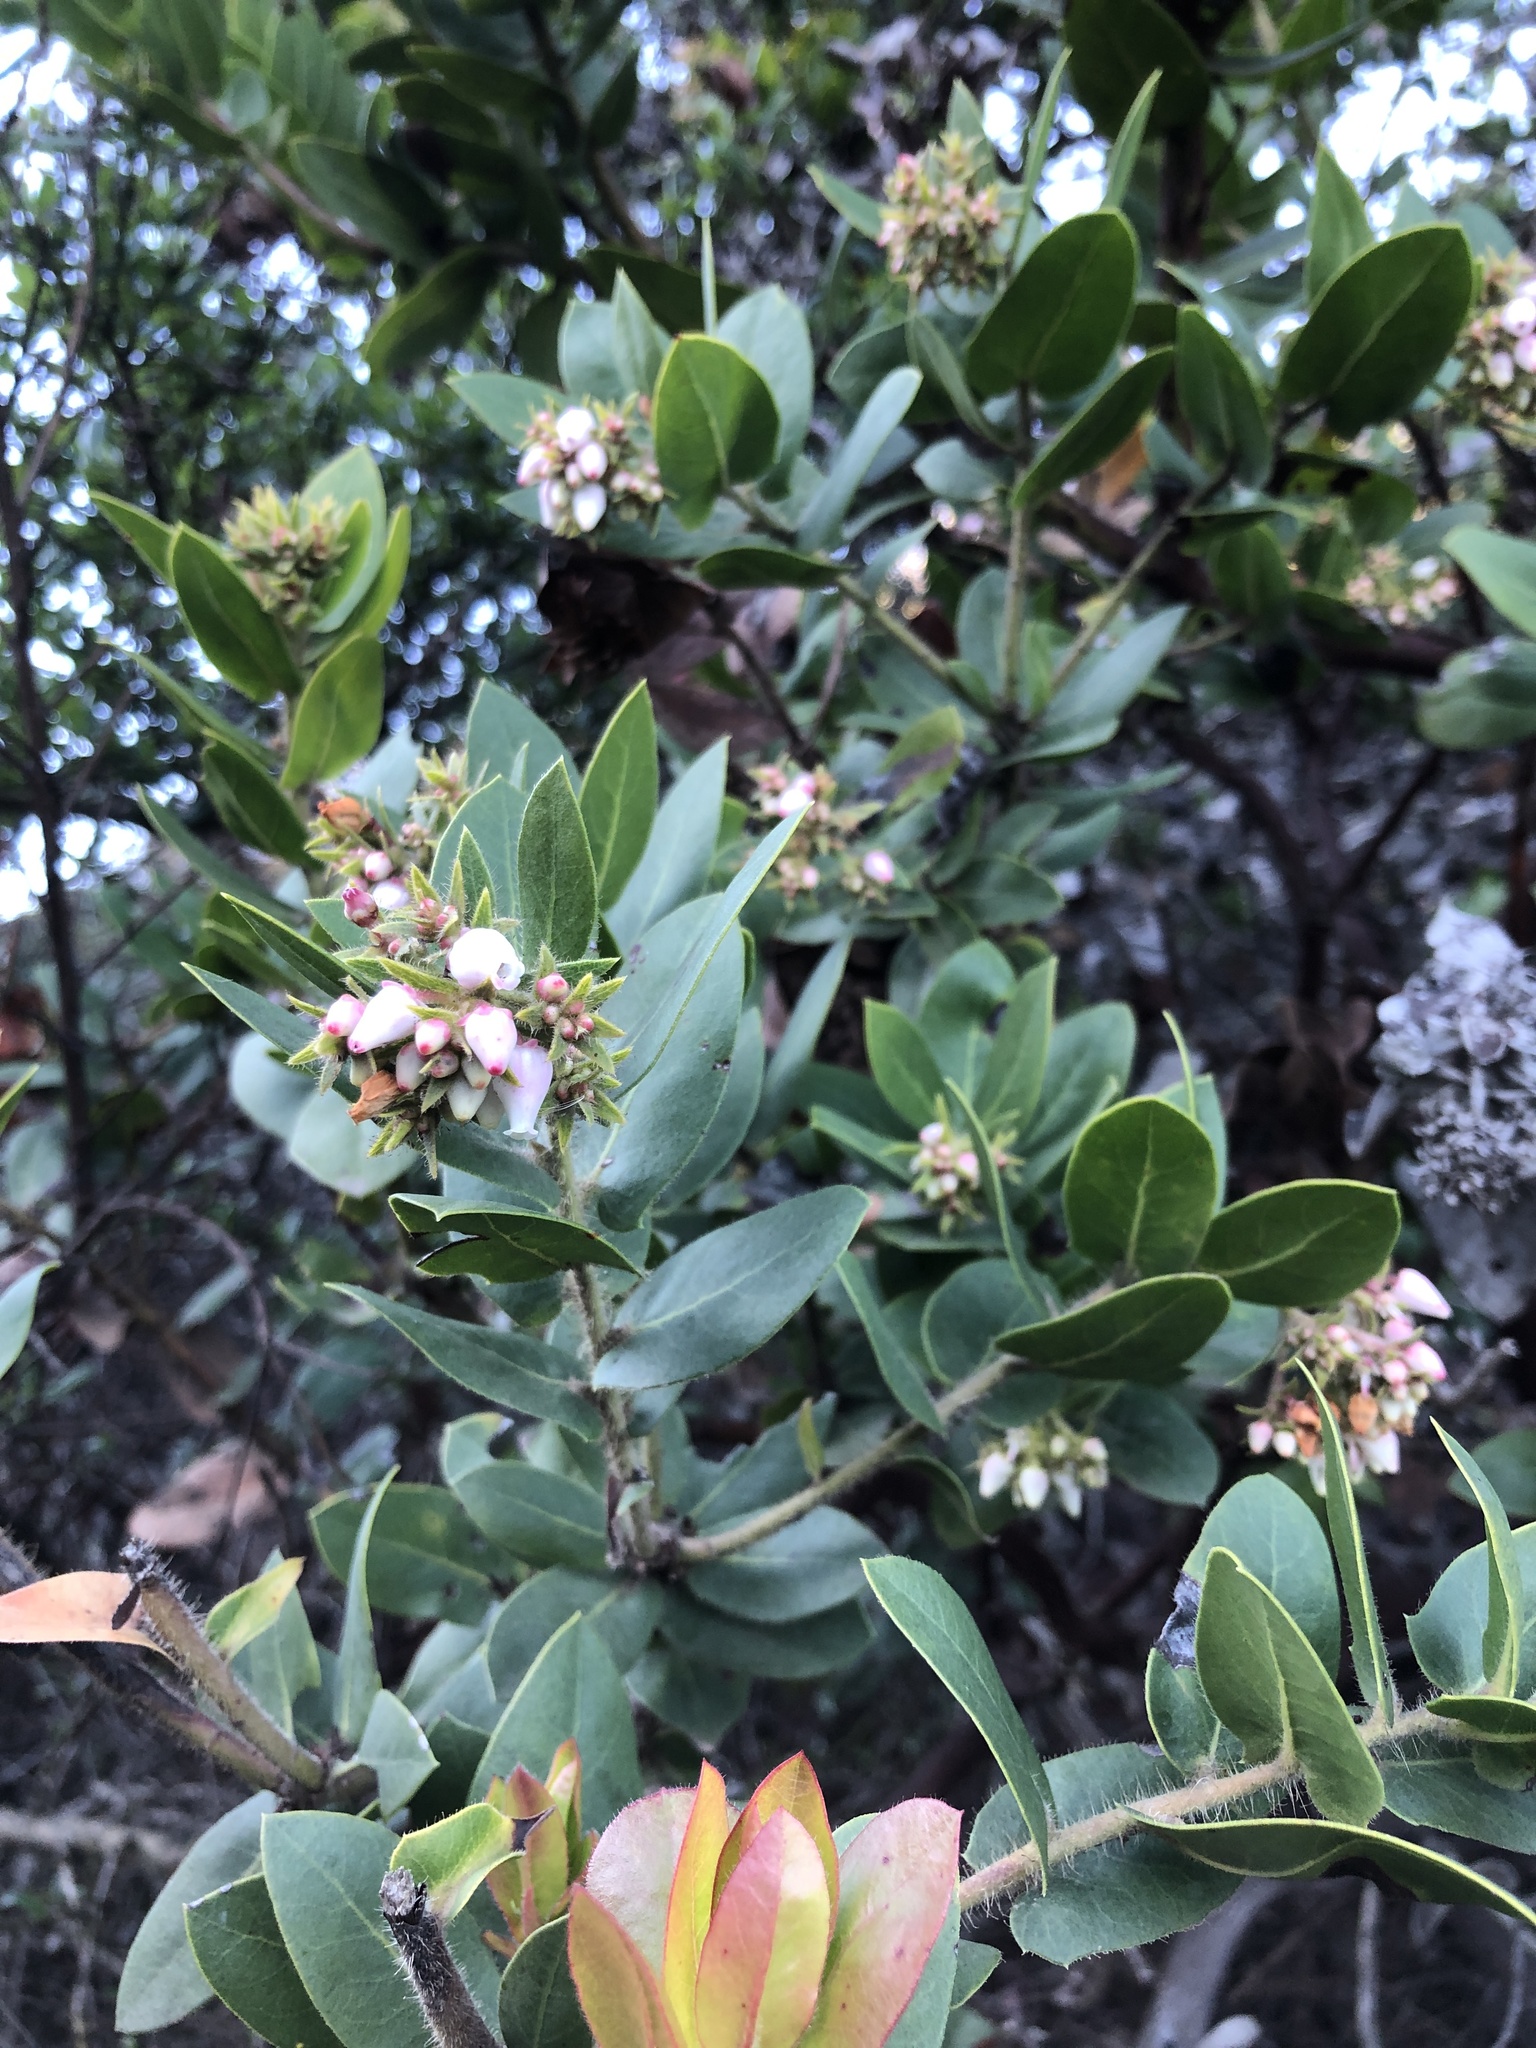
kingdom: Plantae
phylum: Tracheophyta
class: Magnoliopsida
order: Ericales
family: Ericaceae
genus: Arctostaphylos
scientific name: Arctostaphylos montaraensis
